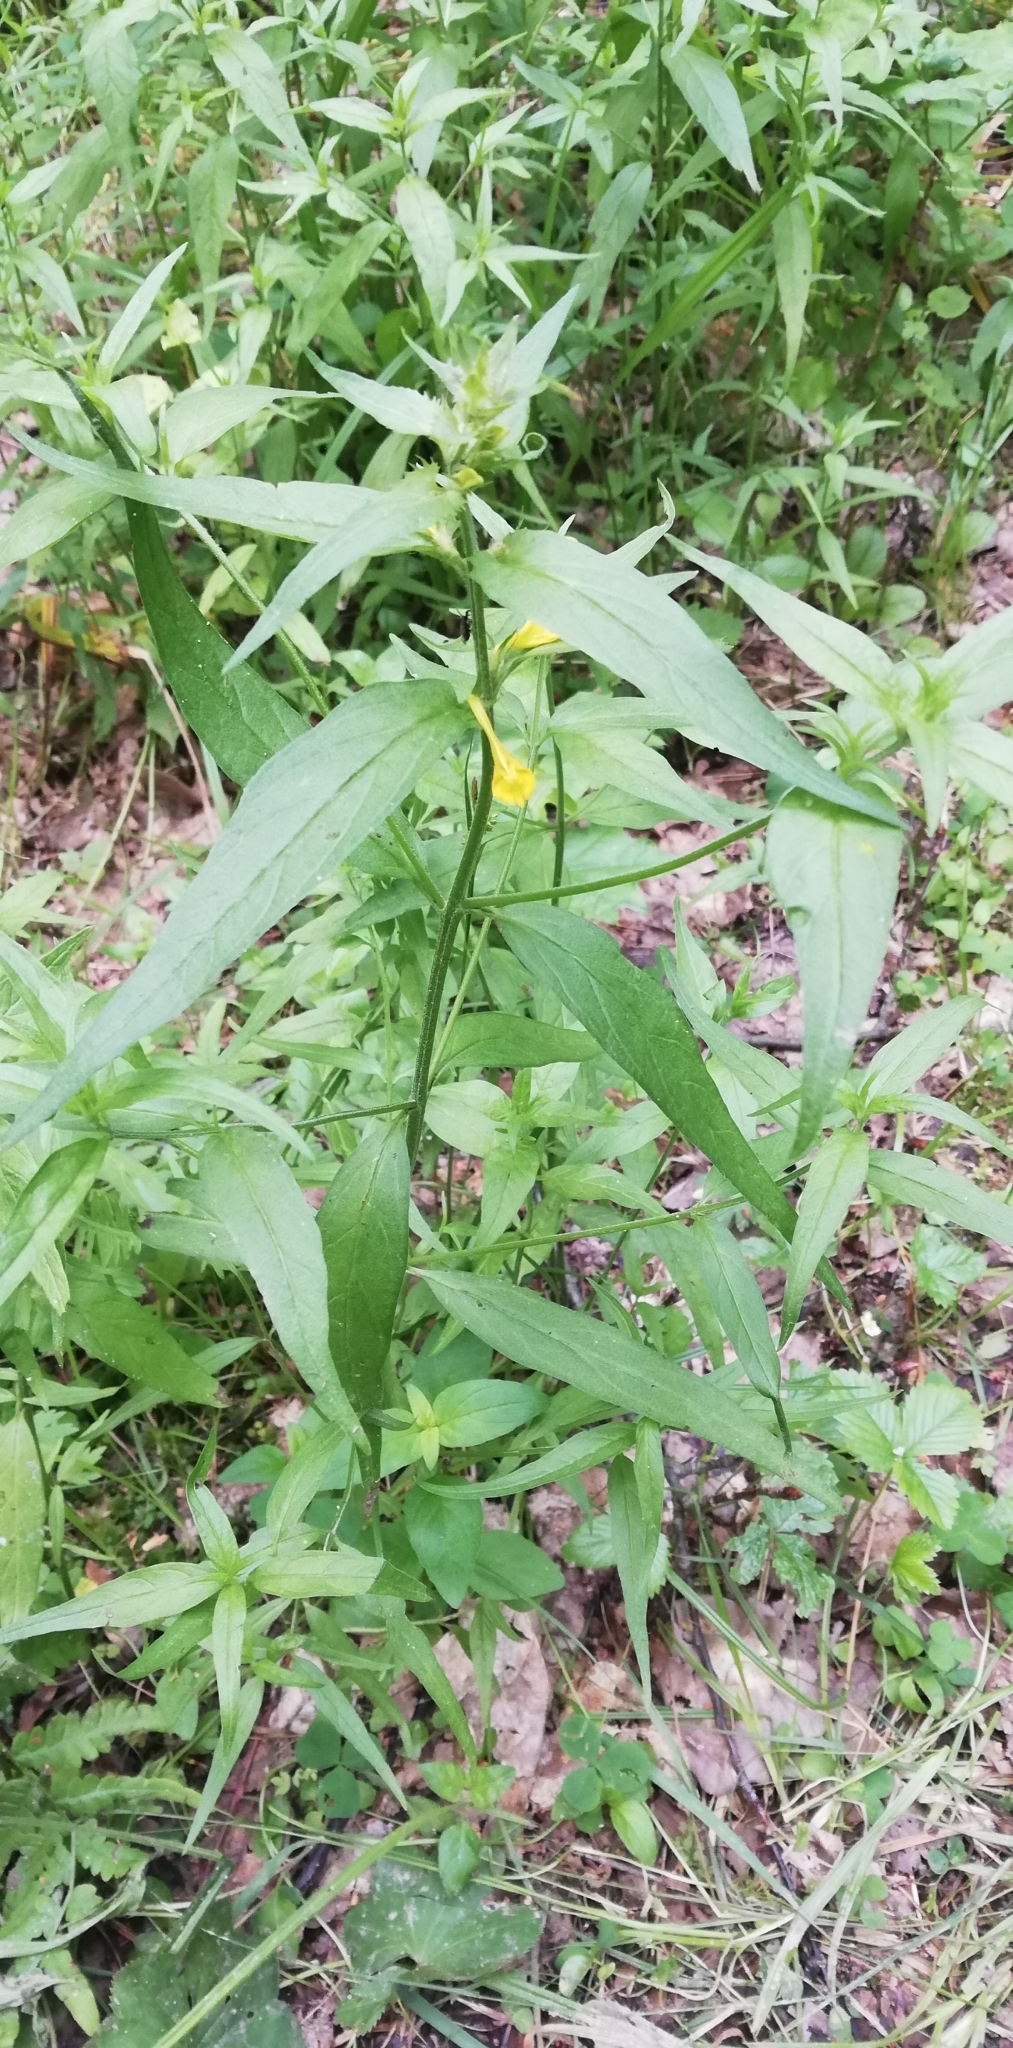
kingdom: Plantae
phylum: Tracheophyta
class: Magnoliopsida
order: Lamiales
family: Orobanchaceae
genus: Melampyrum
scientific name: Melampyrum nemorosum
